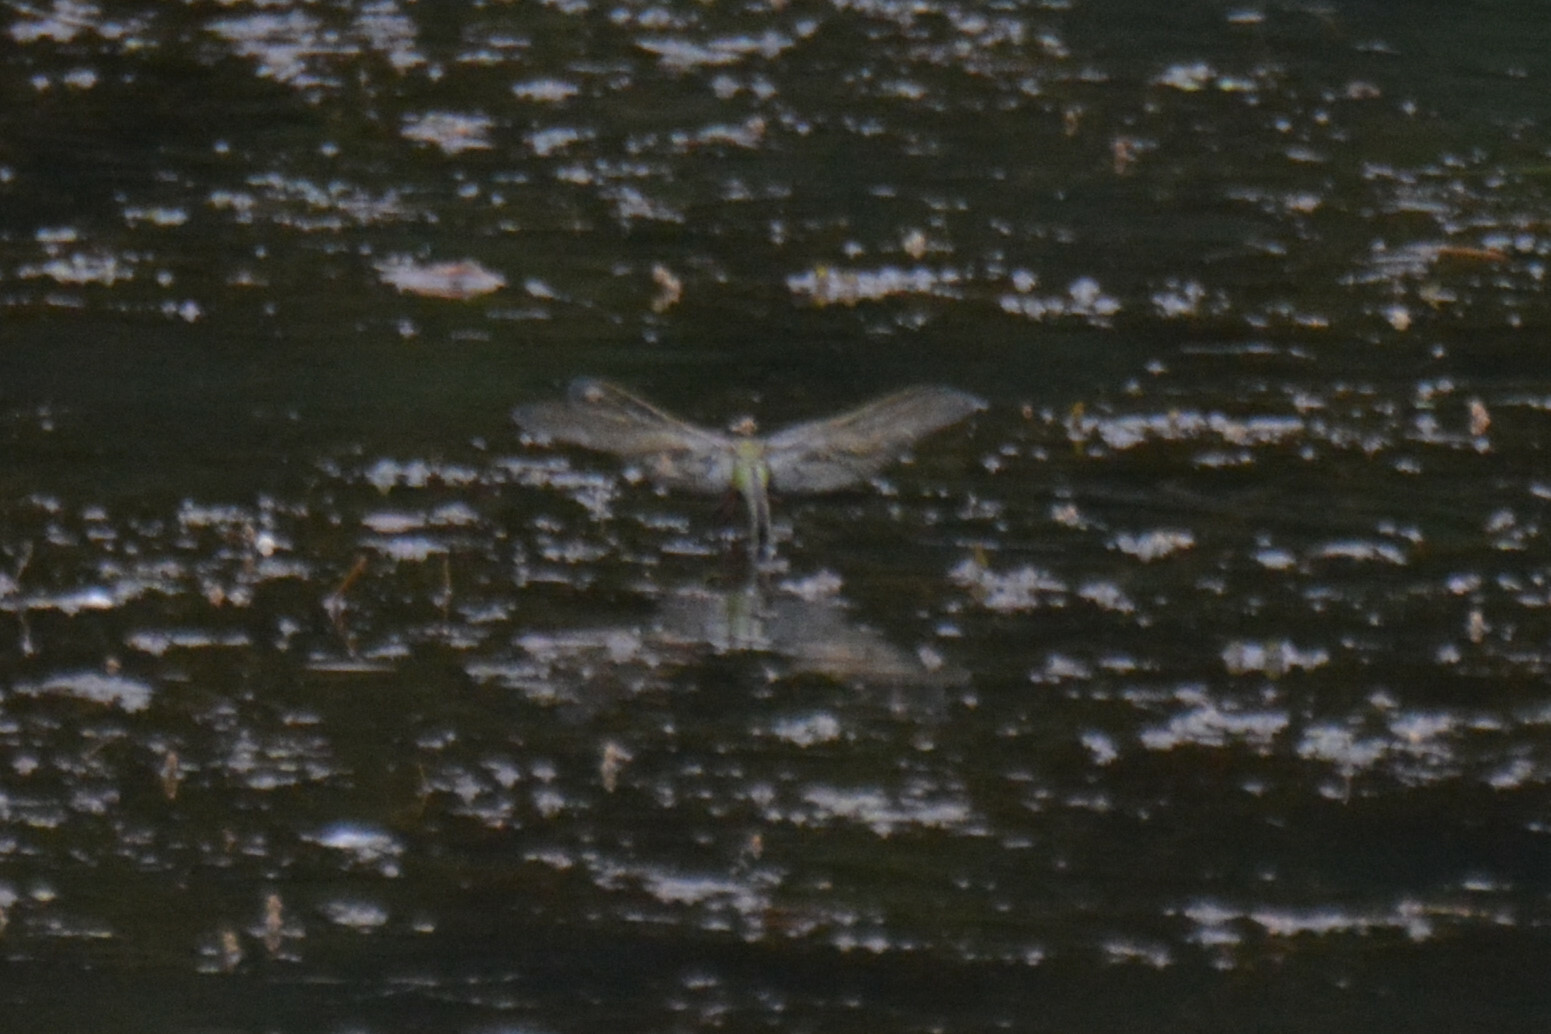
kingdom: Animalia
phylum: Arthropoda
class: Insecta
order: Odonata
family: Aeshnidae
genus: Anax
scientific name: Anax imperator
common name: Emperor dragonfly
